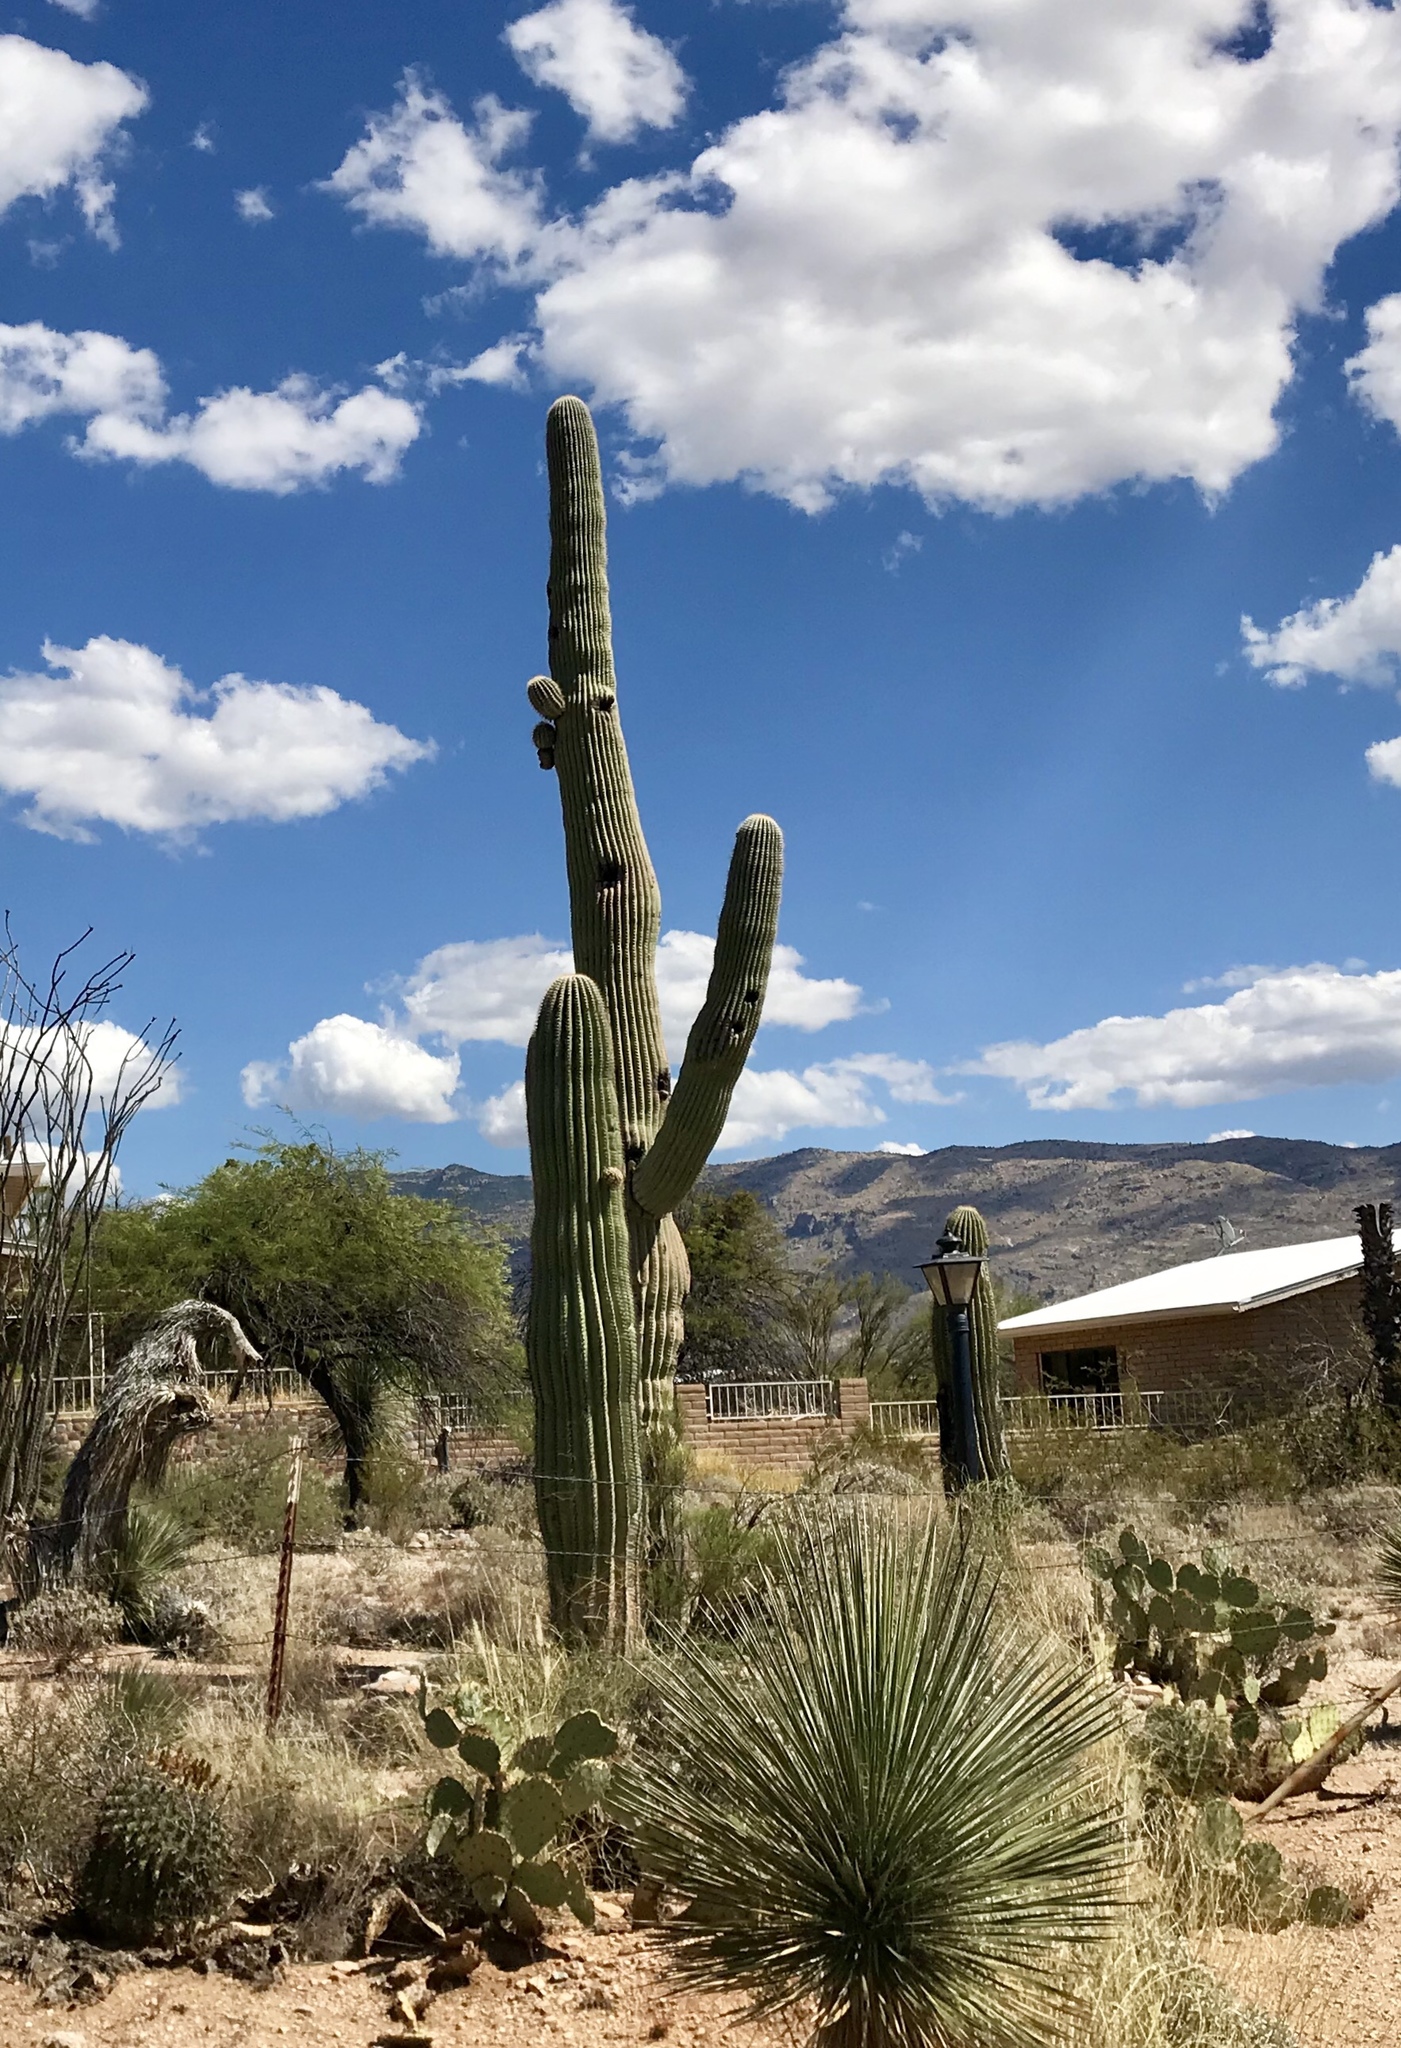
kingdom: Plantae
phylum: Tracheophyta
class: Magnoliopsida
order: Caryophyllales
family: Cactaceae
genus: Carnegiea
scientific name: Carnegiea gigantea
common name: Saguaro
